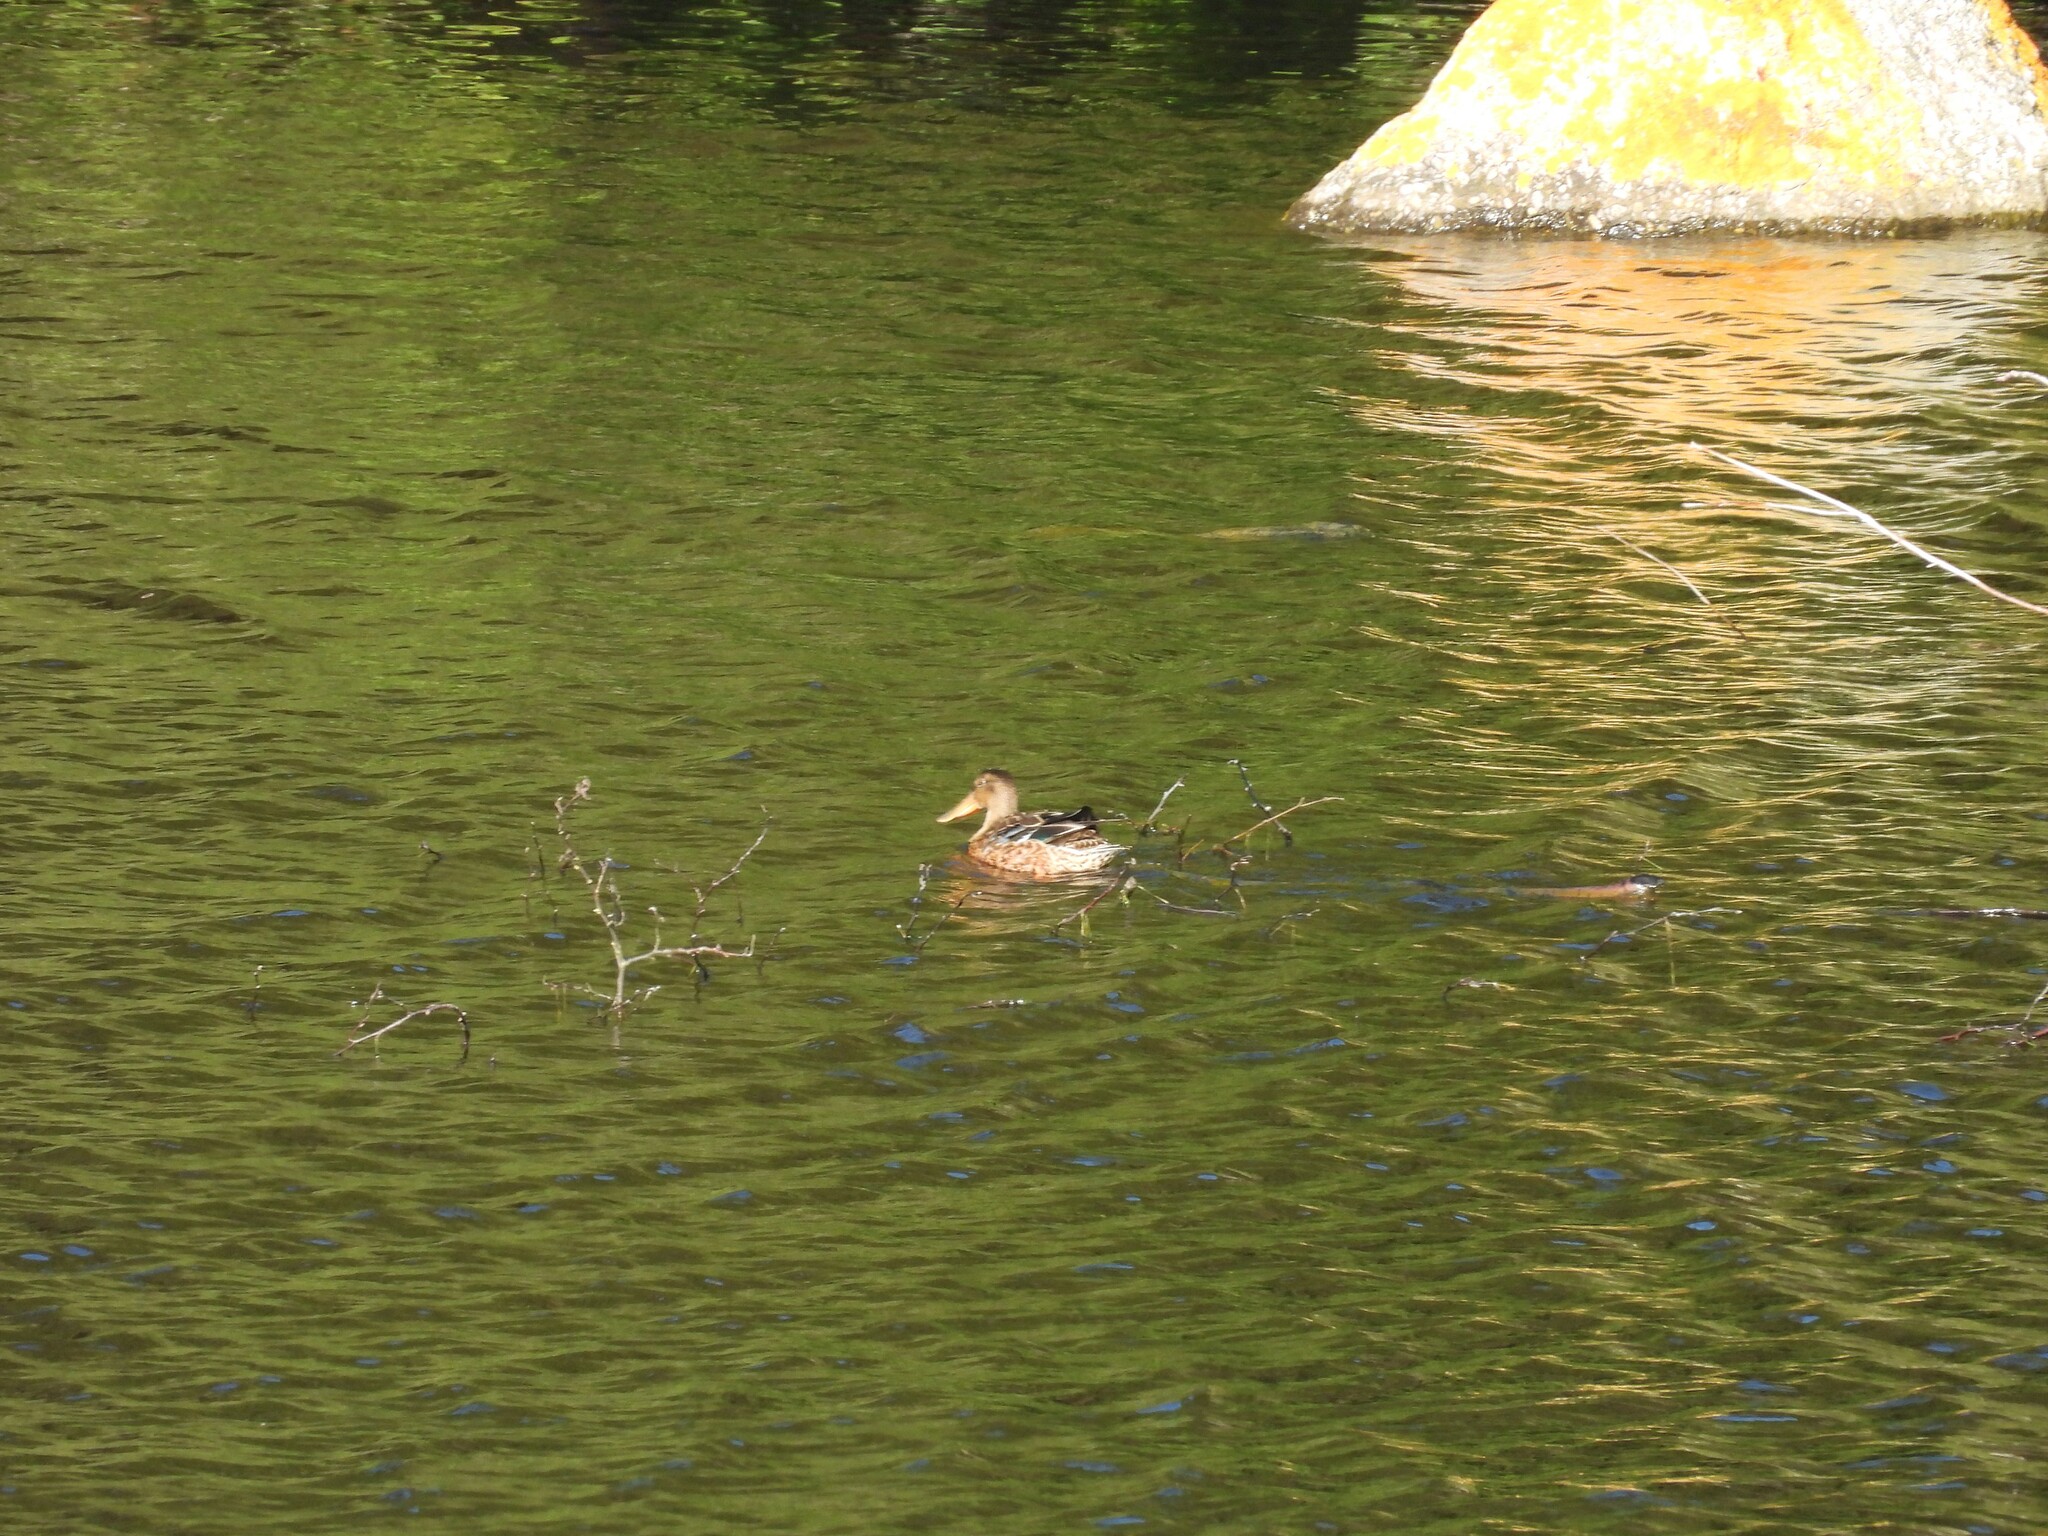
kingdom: Animalia
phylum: Chordata
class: Aves
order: Anseriformes
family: Anatidae
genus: Spatula
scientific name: Spatula clypeata
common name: Northern shoveler
